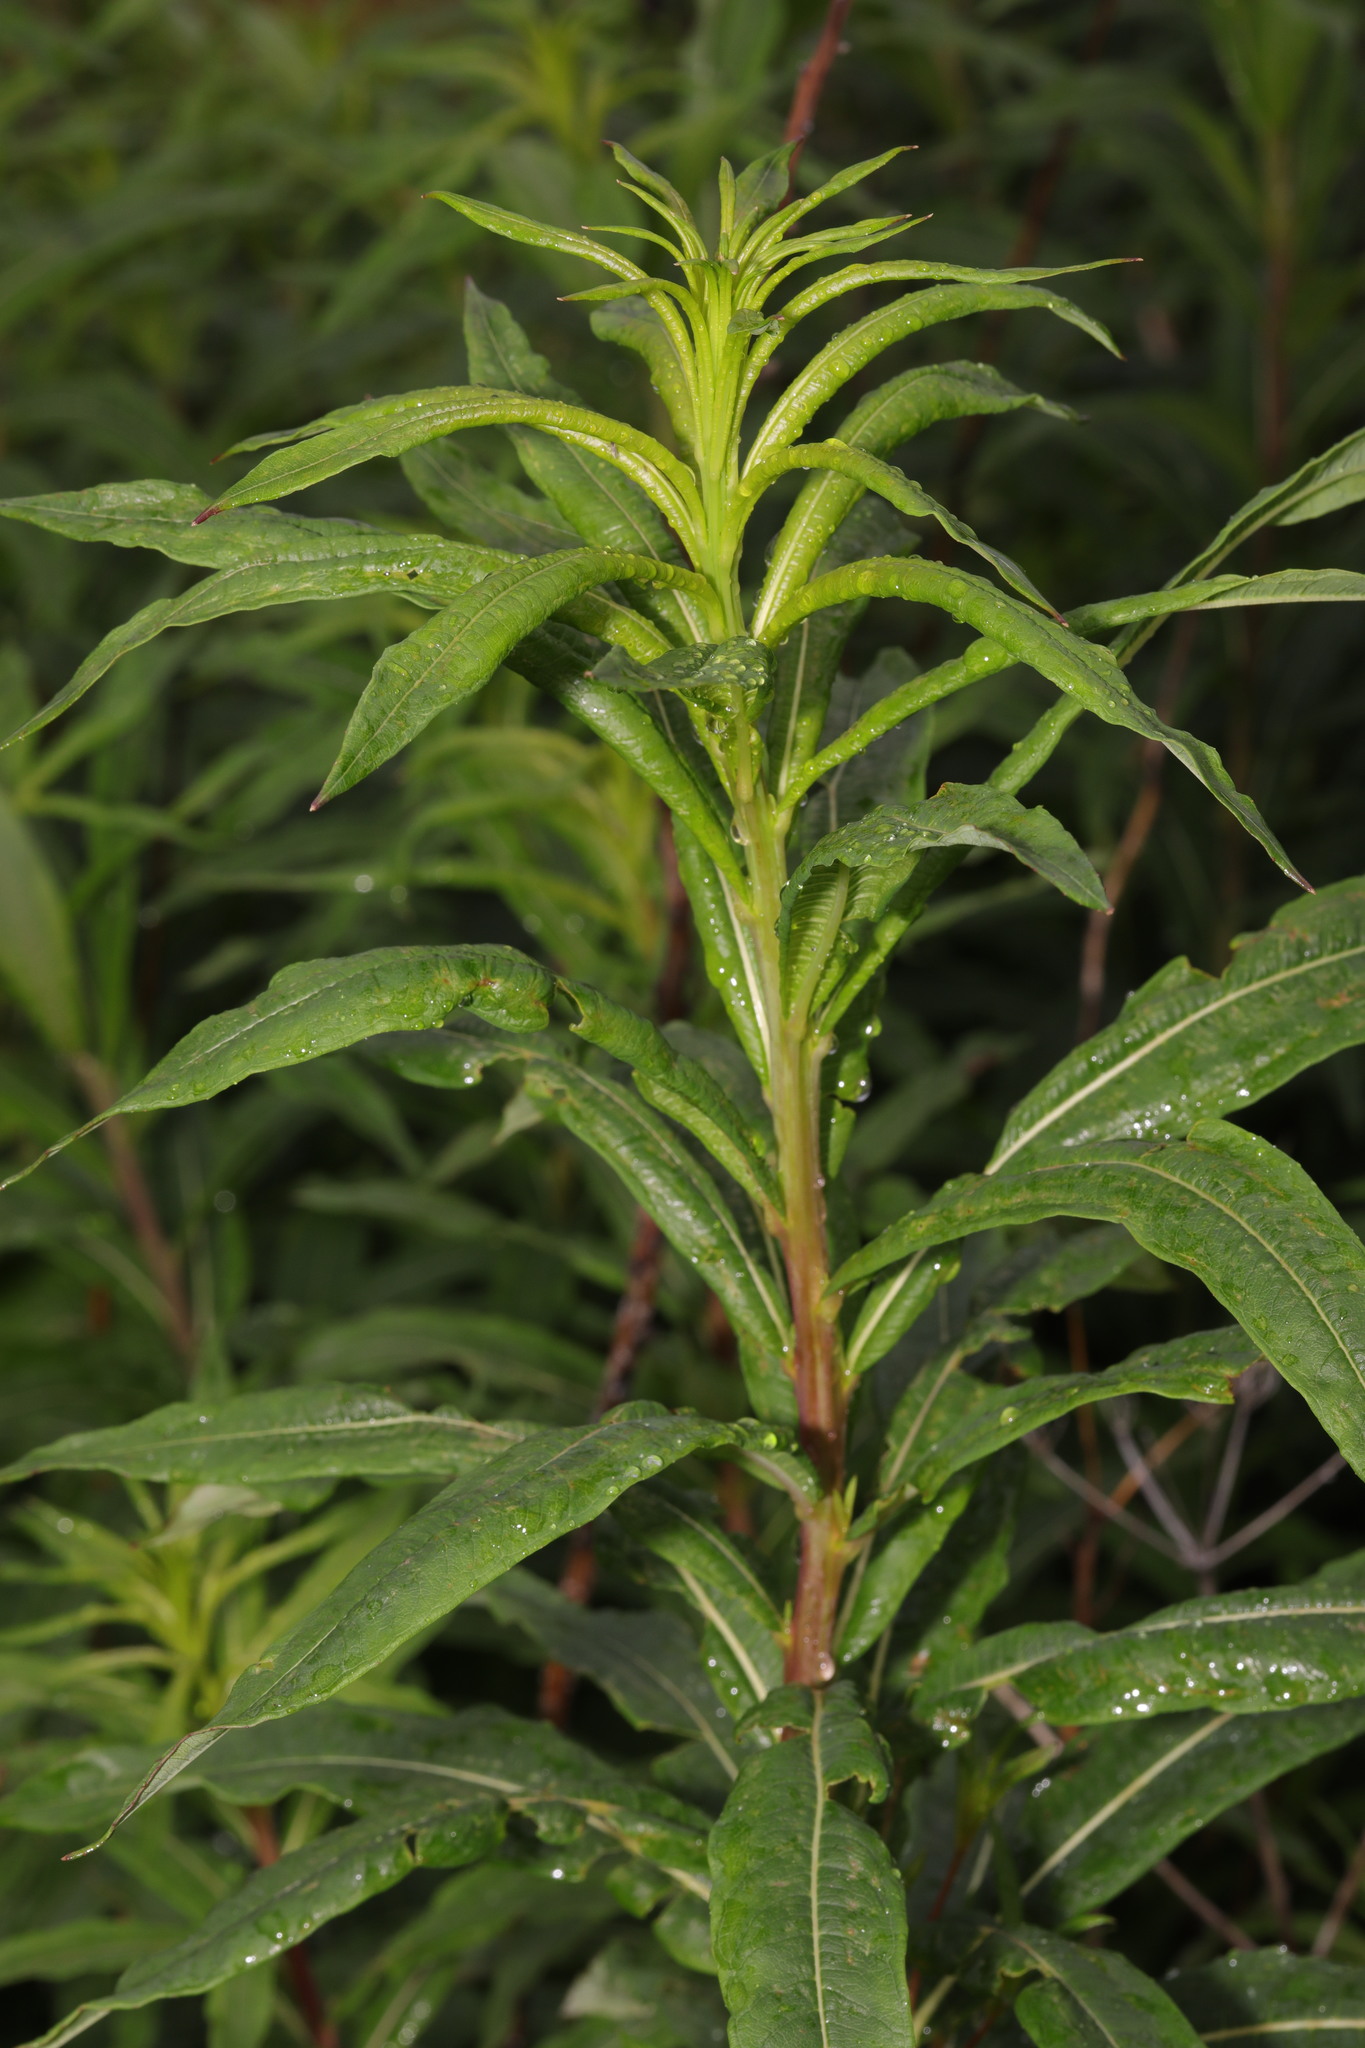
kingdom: Plantae
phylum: Tracheophyta
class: Magnoliopsida
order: Myrtales
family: Onagraceae
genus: Chamaenerion
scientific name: Chamaenerion angustifolium
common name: Fireweed
